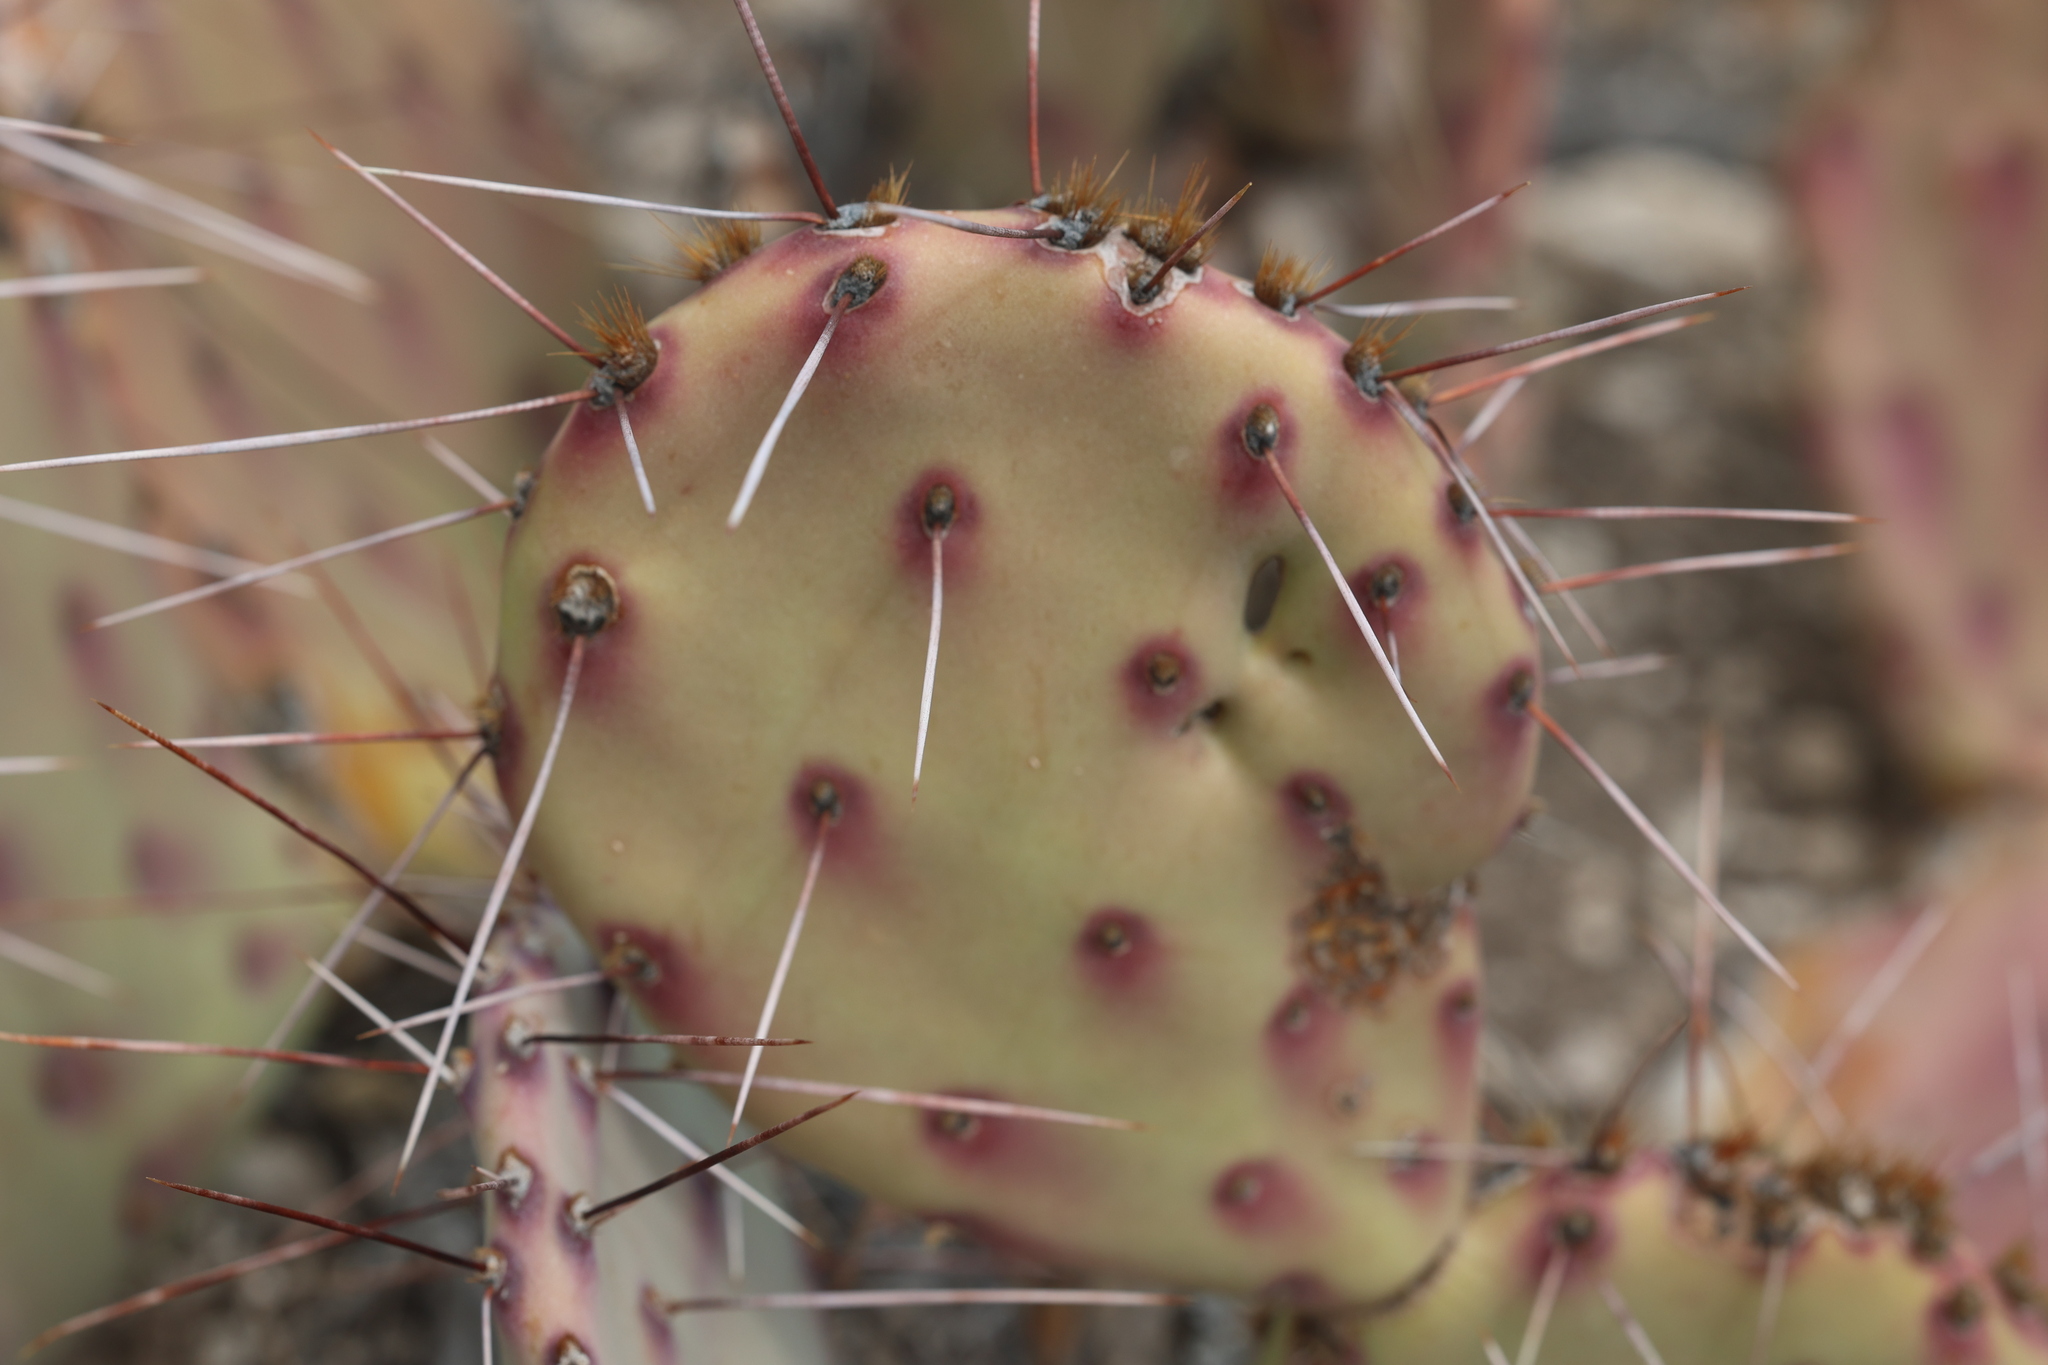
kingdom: Plantae
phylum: Tracheophyta
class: Magnoliopsida
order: Caryophyllales
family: Cactaceae
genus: Opuntia
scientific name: Opuntia phaeacantha
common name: New mexico prickly-pear
